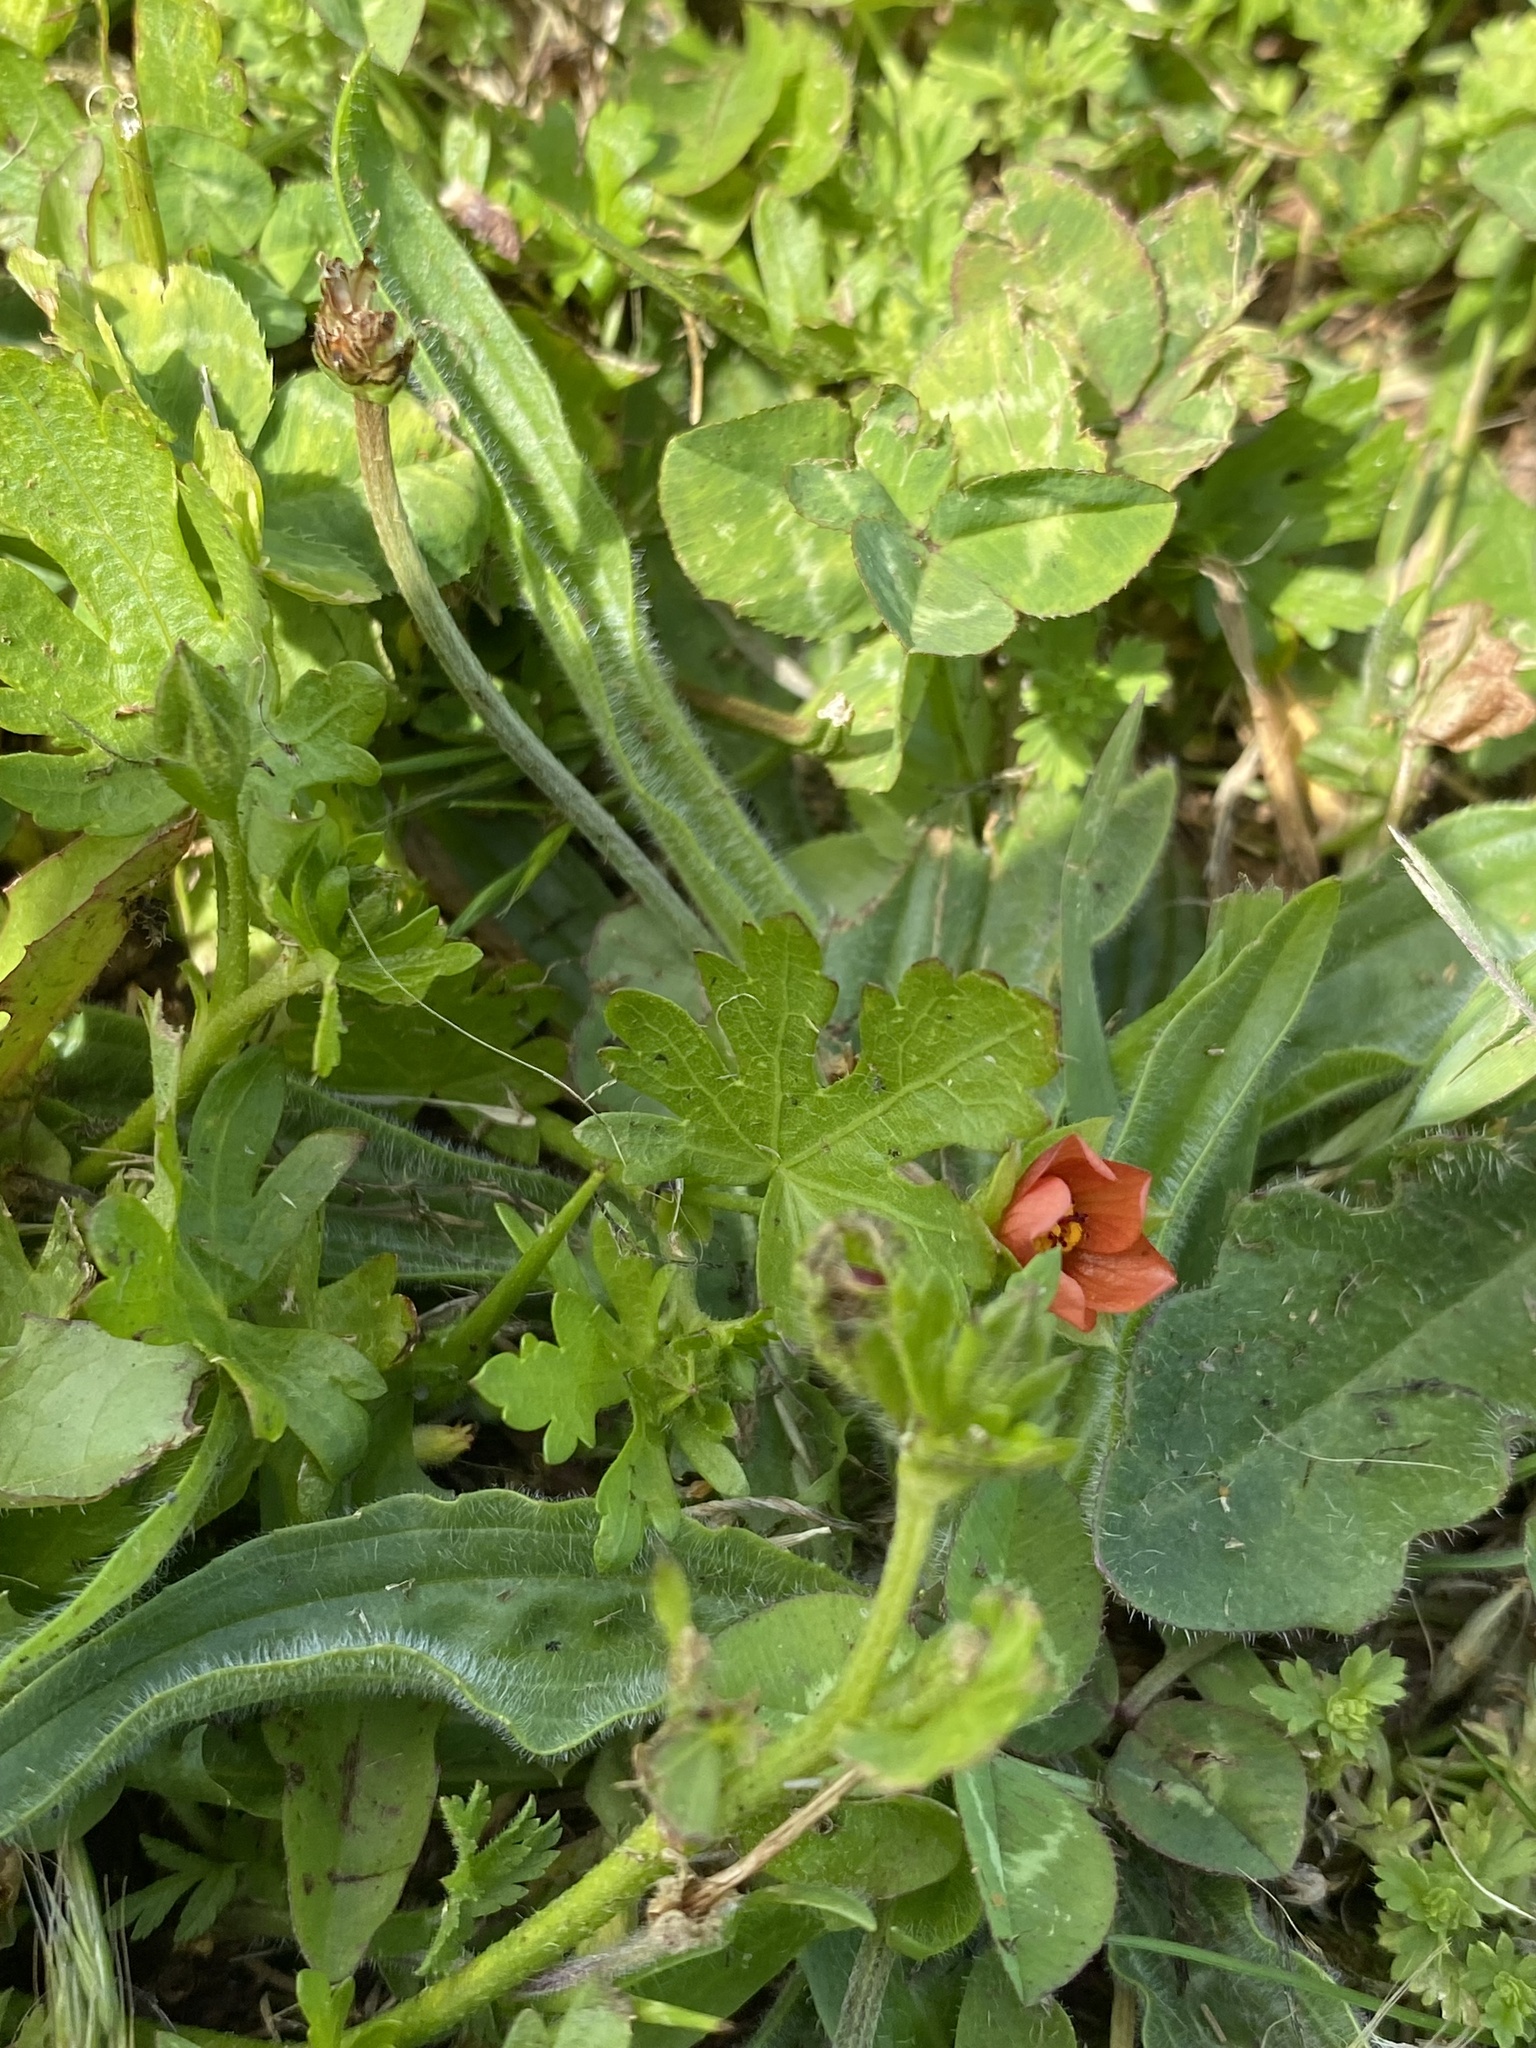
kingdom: Plantae
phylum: Tracheophyta
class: Magnoliopsida
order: Malvales
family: Malvaceae
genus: Modiola
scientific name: Modiola caroliniana
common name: Carolina bristlemallow
